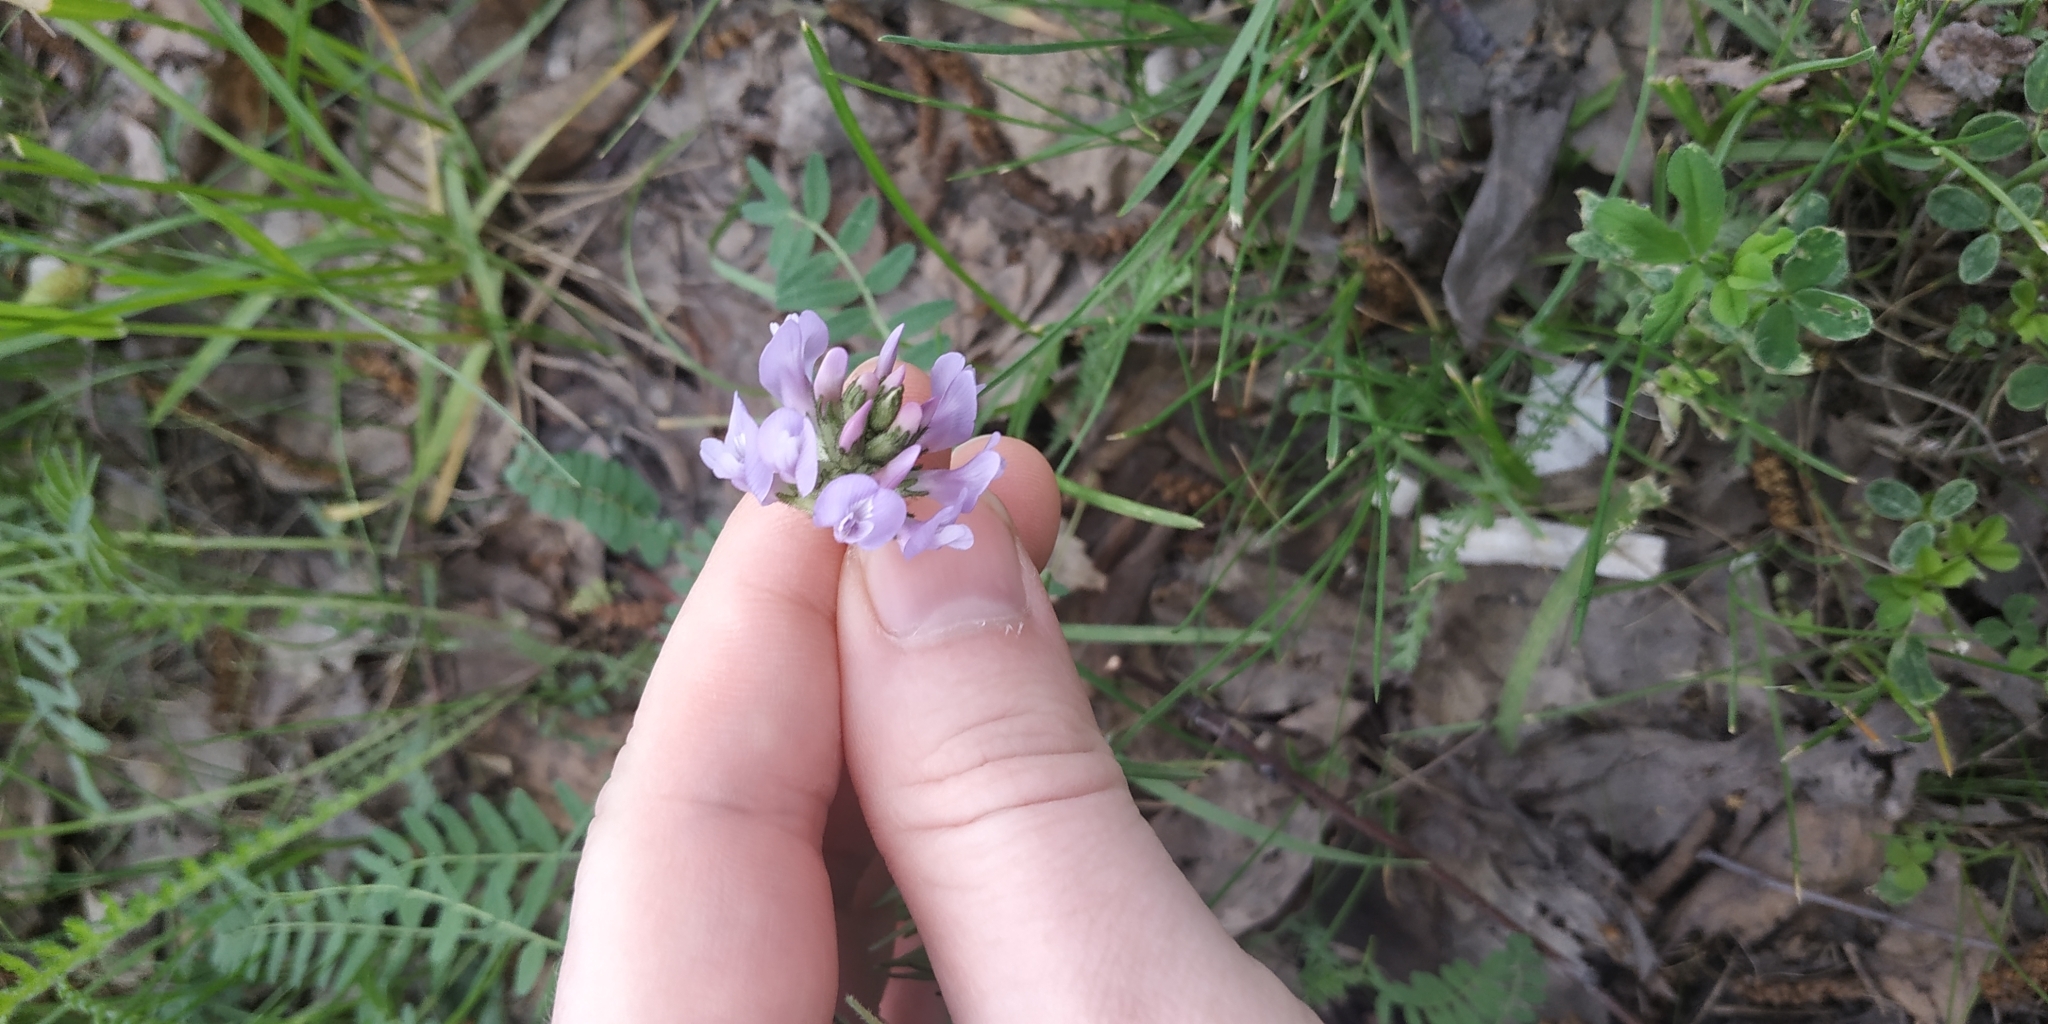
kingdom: Plantae
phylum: Tracheophyta
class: Magnoliopsida
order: Fabales
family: Fabaceae
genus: Astragalus
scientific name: Astragalus danicus
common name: Purple milk-vetch
